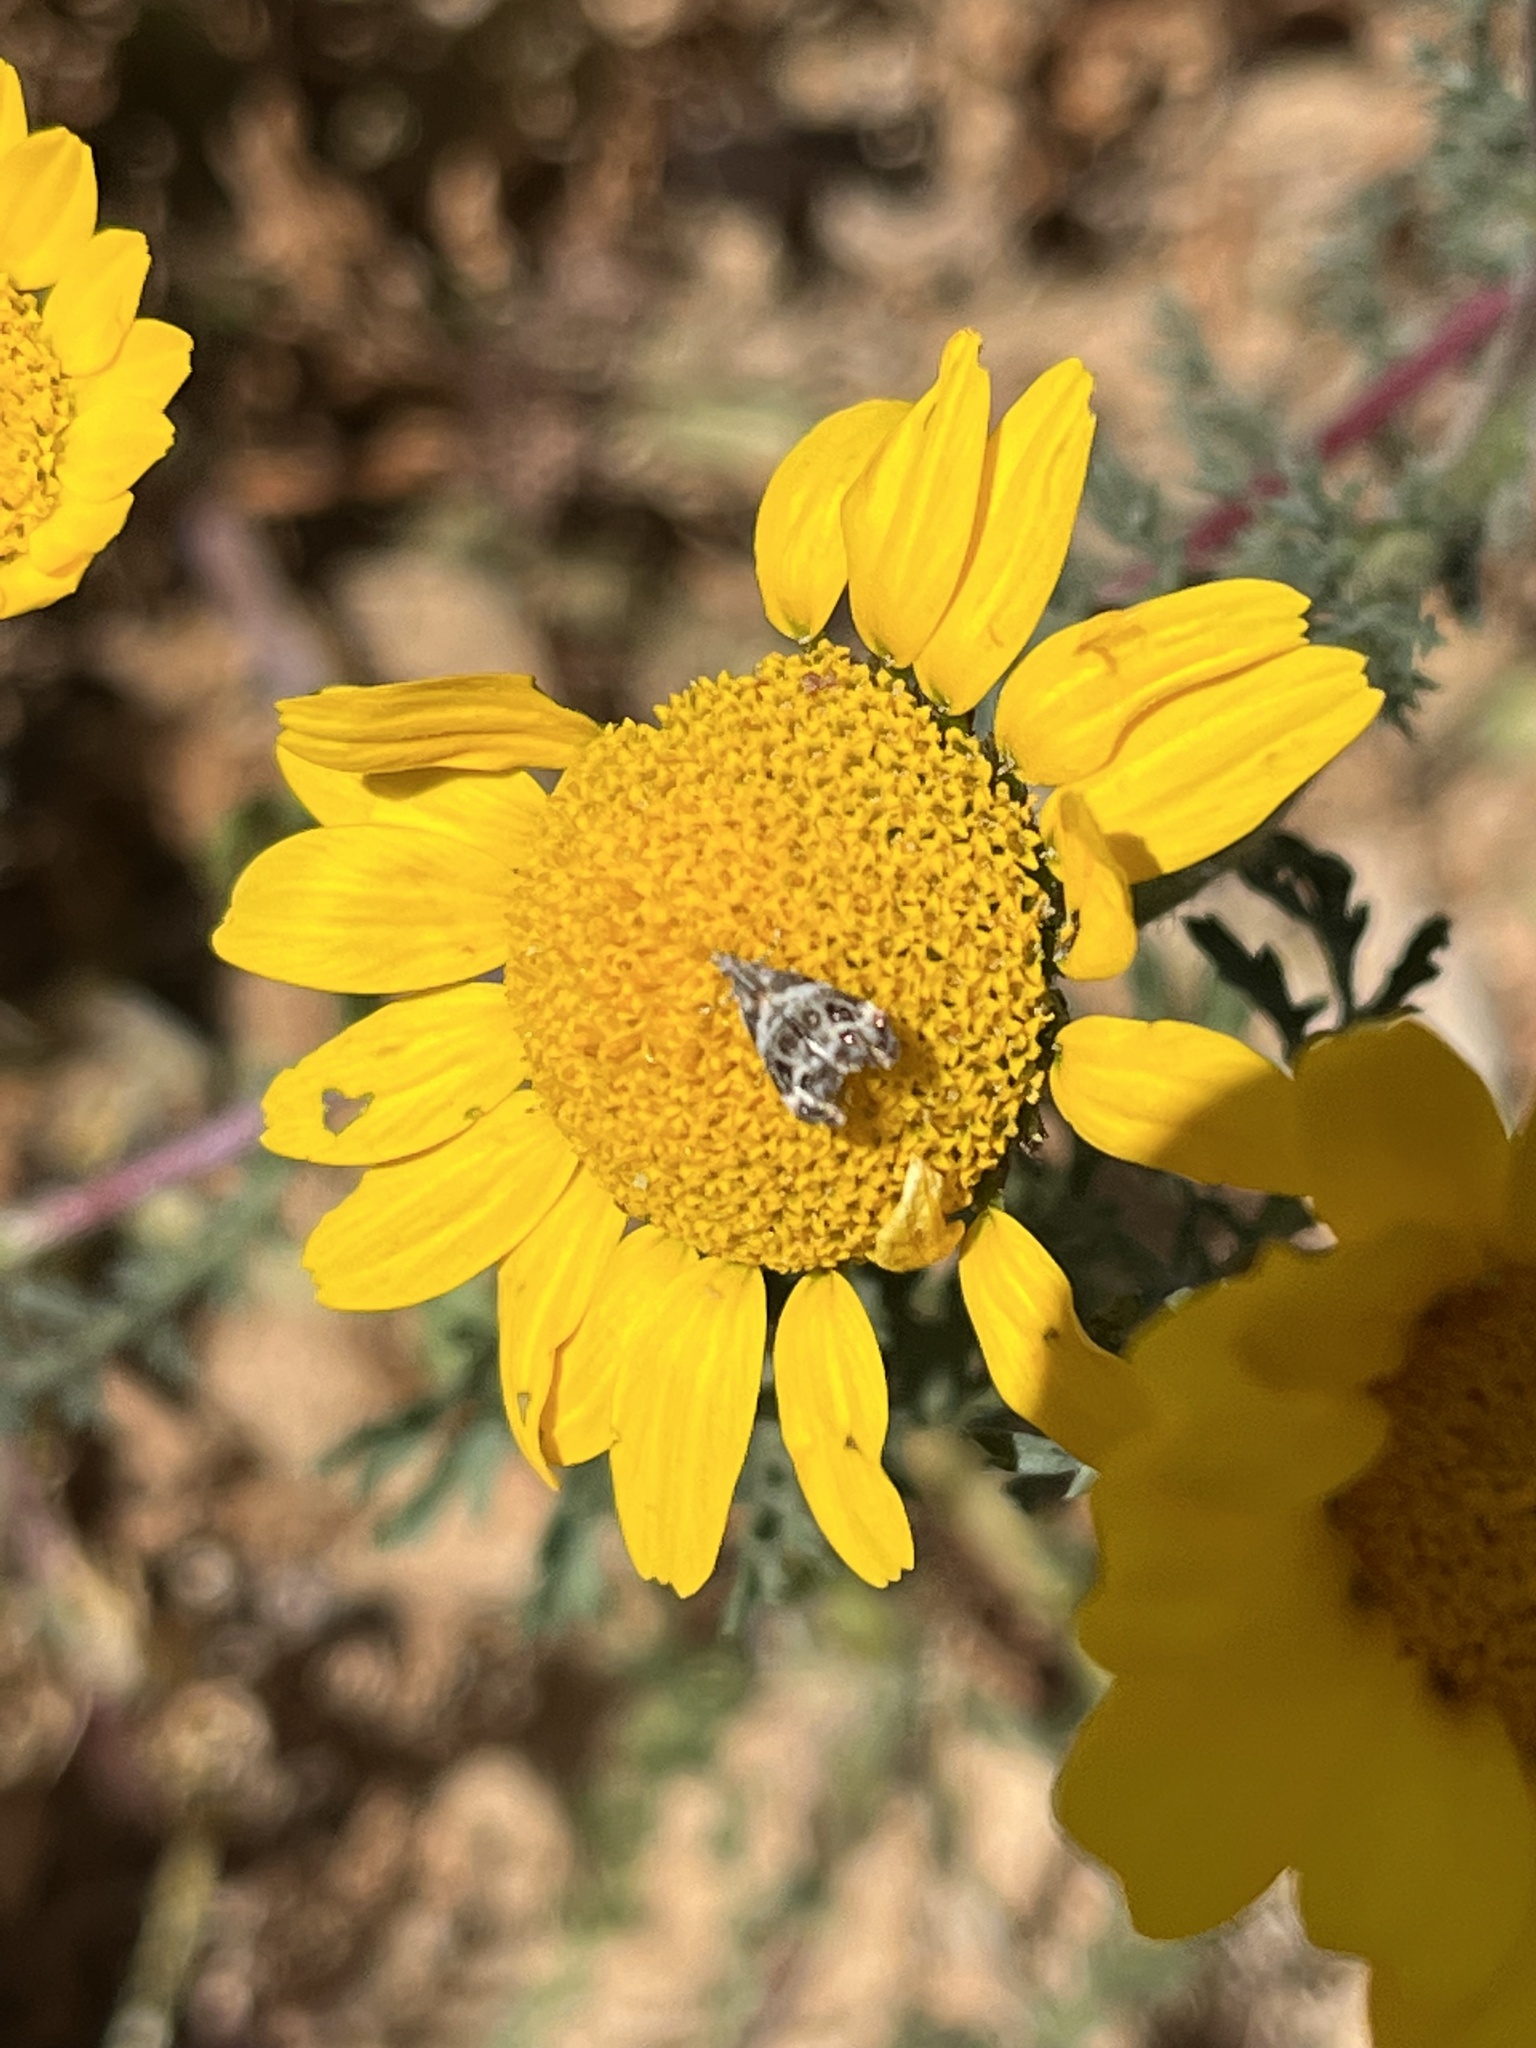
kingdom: Animalia
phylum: Arthropoda
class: Insecta
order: Lepidoptera
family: Choreutidae
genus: Tebenna
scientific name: Tebenna micalis
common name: Vagrant twitcher
